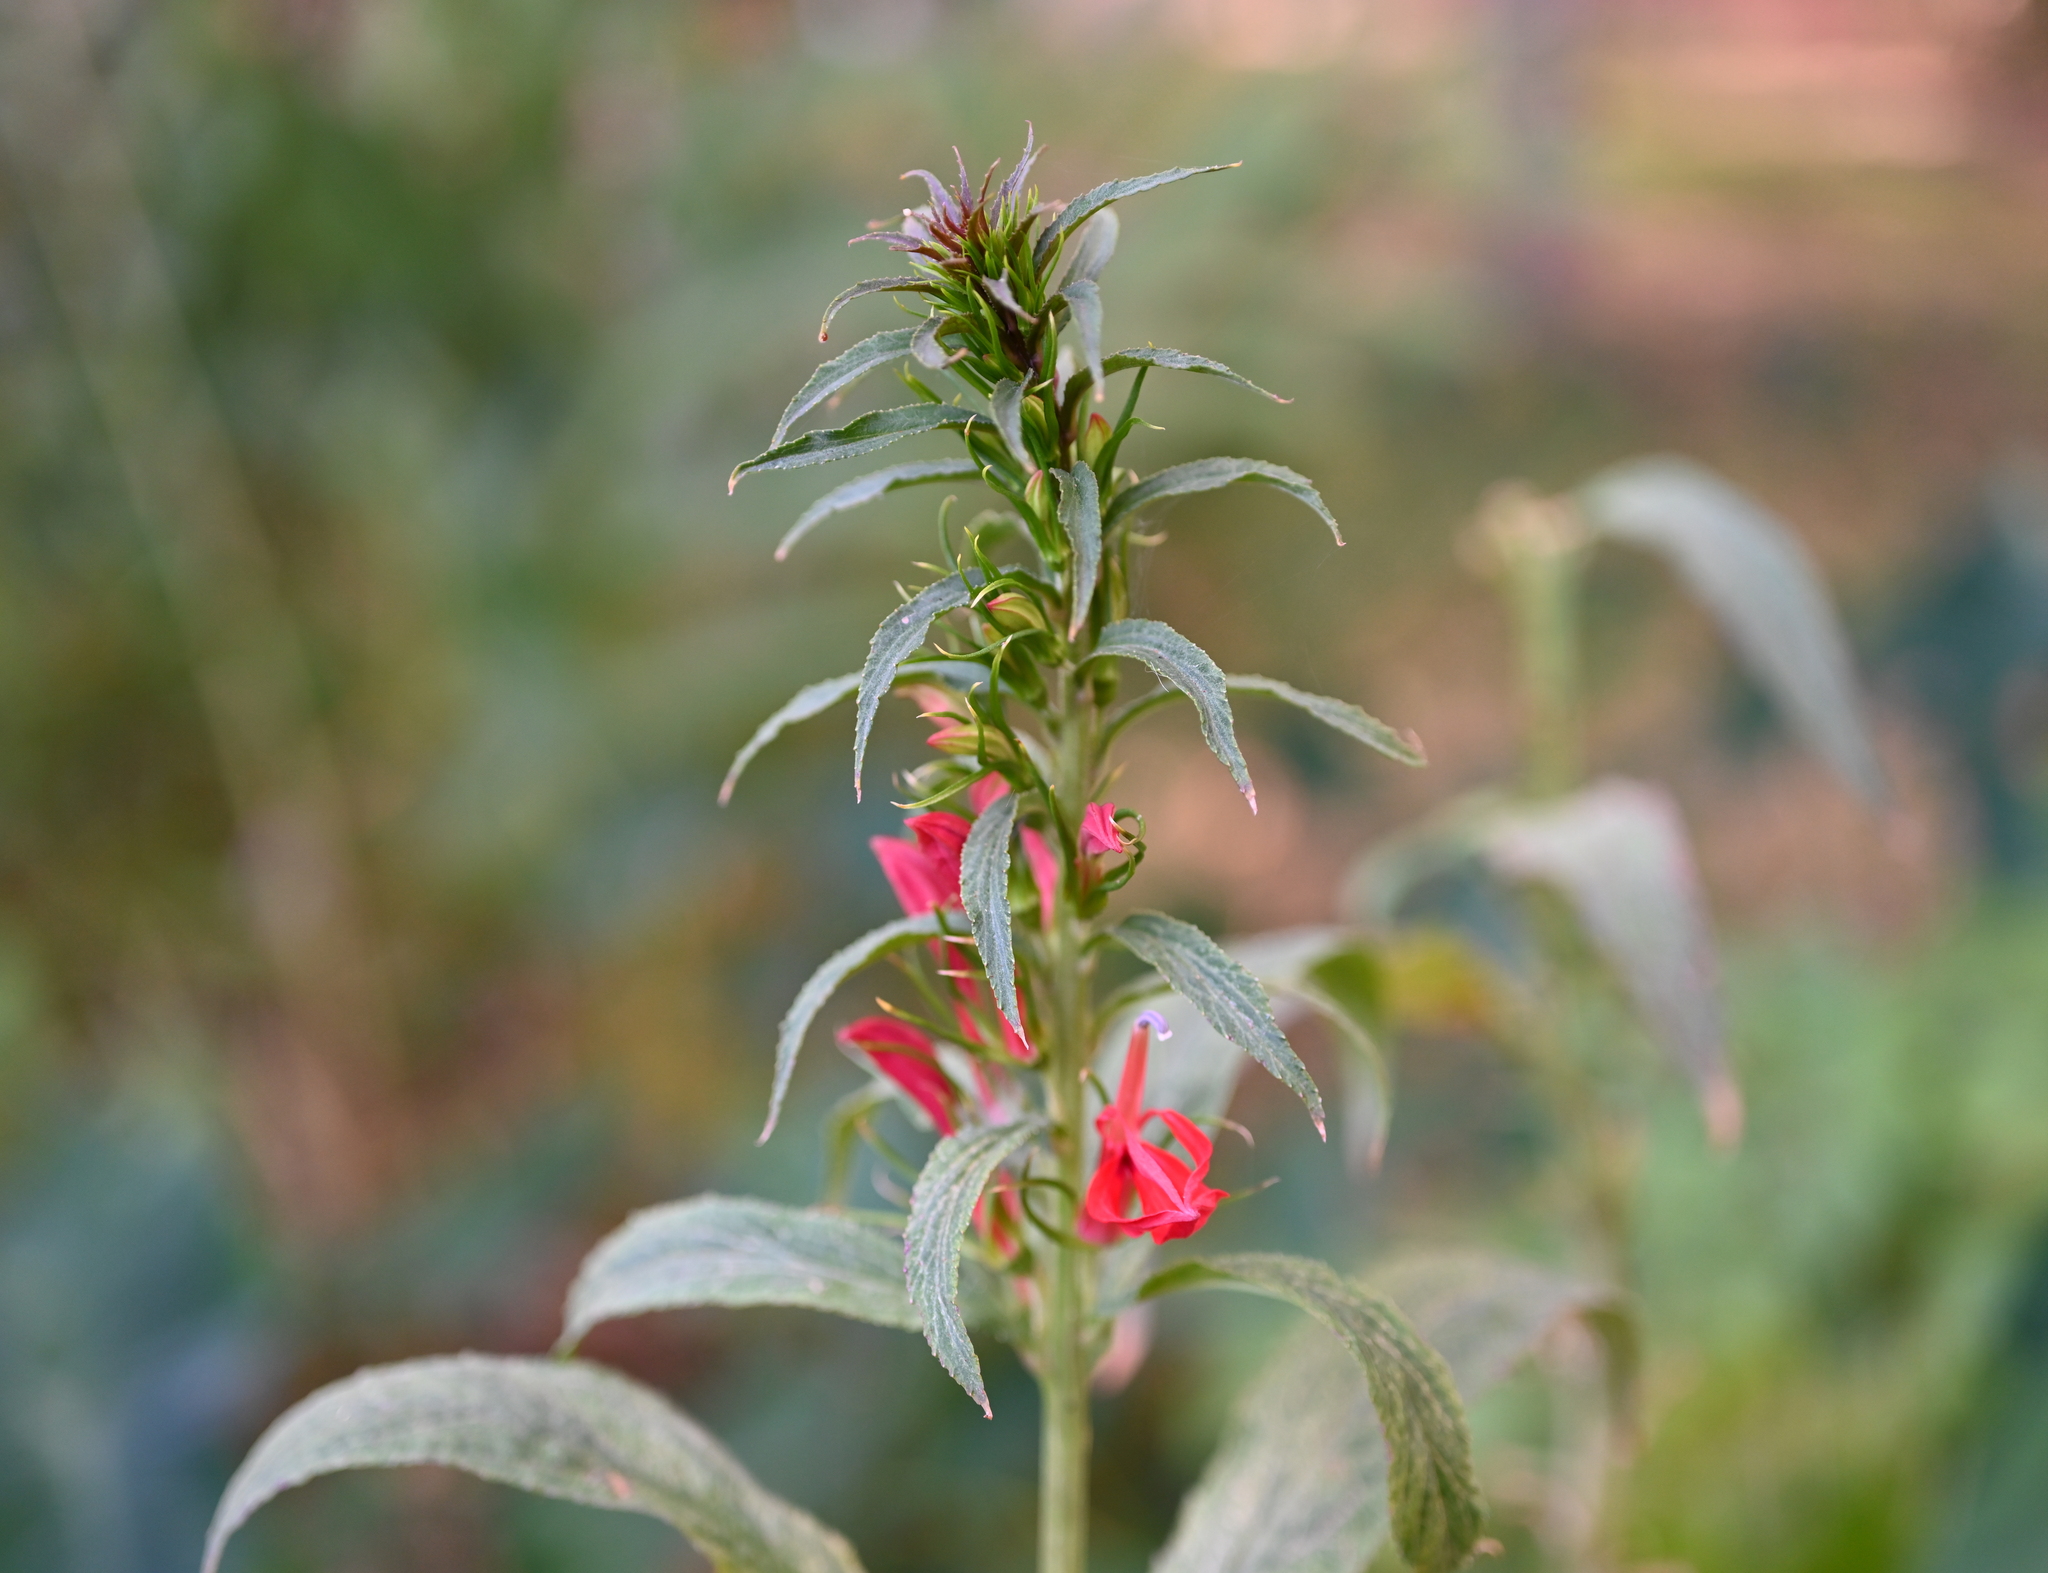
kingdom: Plantae
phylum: Tracheophyta
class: Magnoliopsida
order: Asterales
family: Campanulaceae
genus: Lobelia
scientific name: Lobelia cardinalis
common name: Cardinal flower
